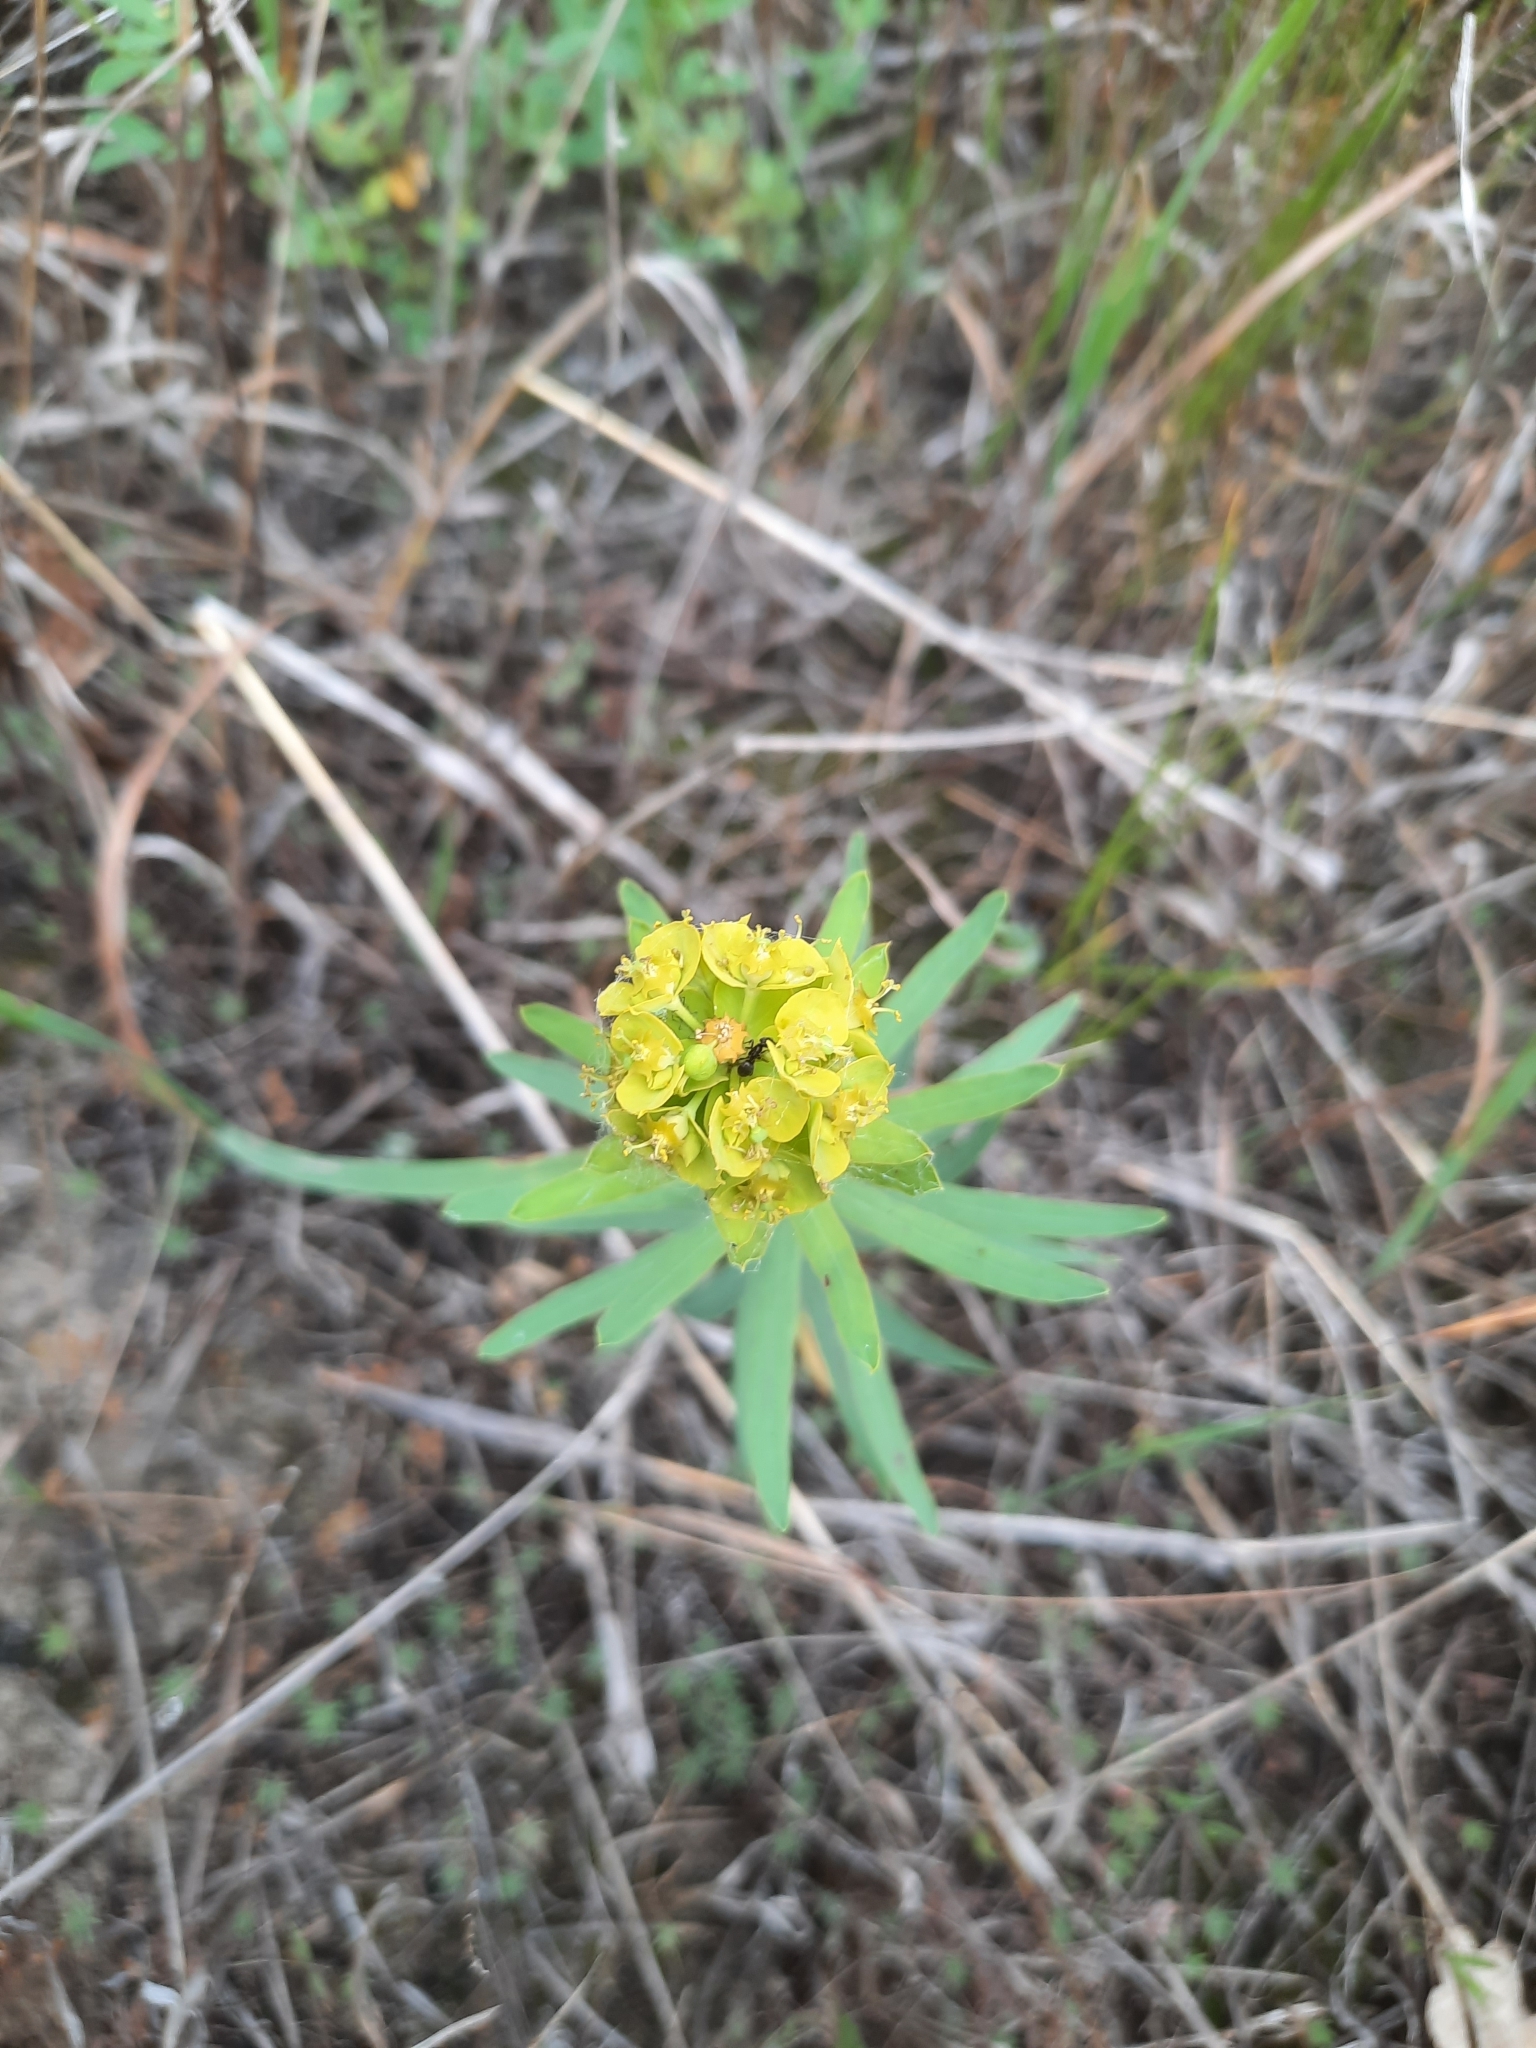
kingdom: Plantae
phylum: Tracheophyta
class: Magnoliopsida
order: Malpighiales
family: Euphorbiaceae
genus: Euphorbia
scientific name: Euphorbia virgata
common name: Leafy spurge
